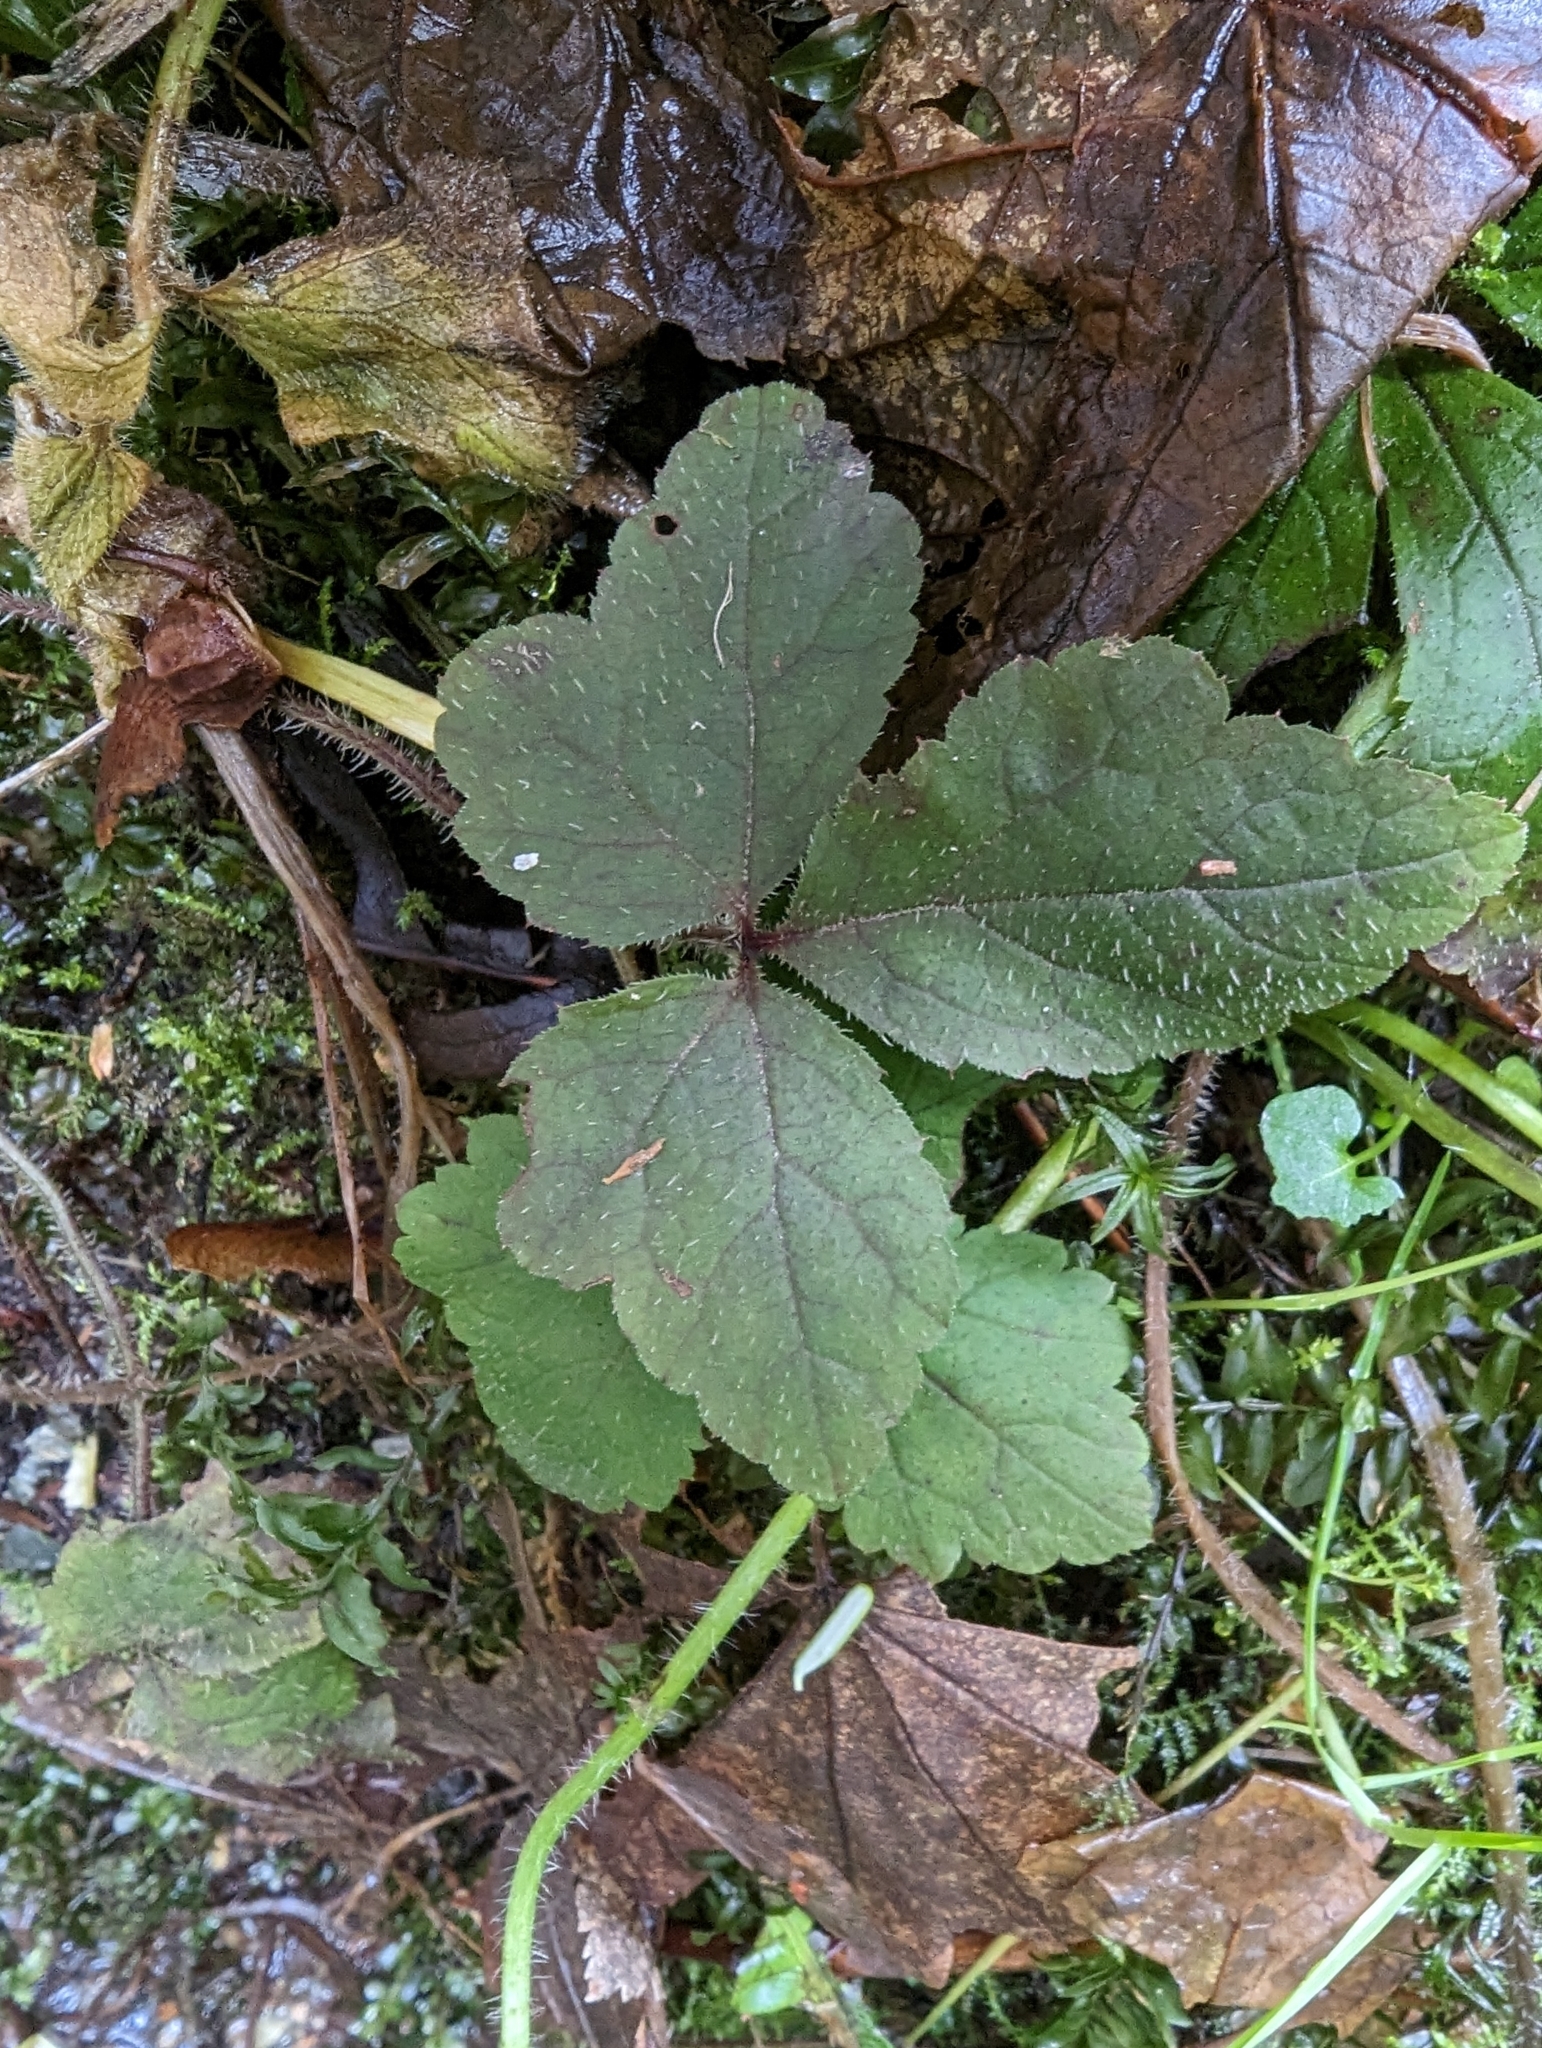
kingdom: Plantae
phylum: Tracheophyta
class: Magnoliopsida
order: Saxifragales
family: Saxifragaceae
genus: Tiarella
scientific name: Tiarella trifoliata
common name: Sugar-scoop
